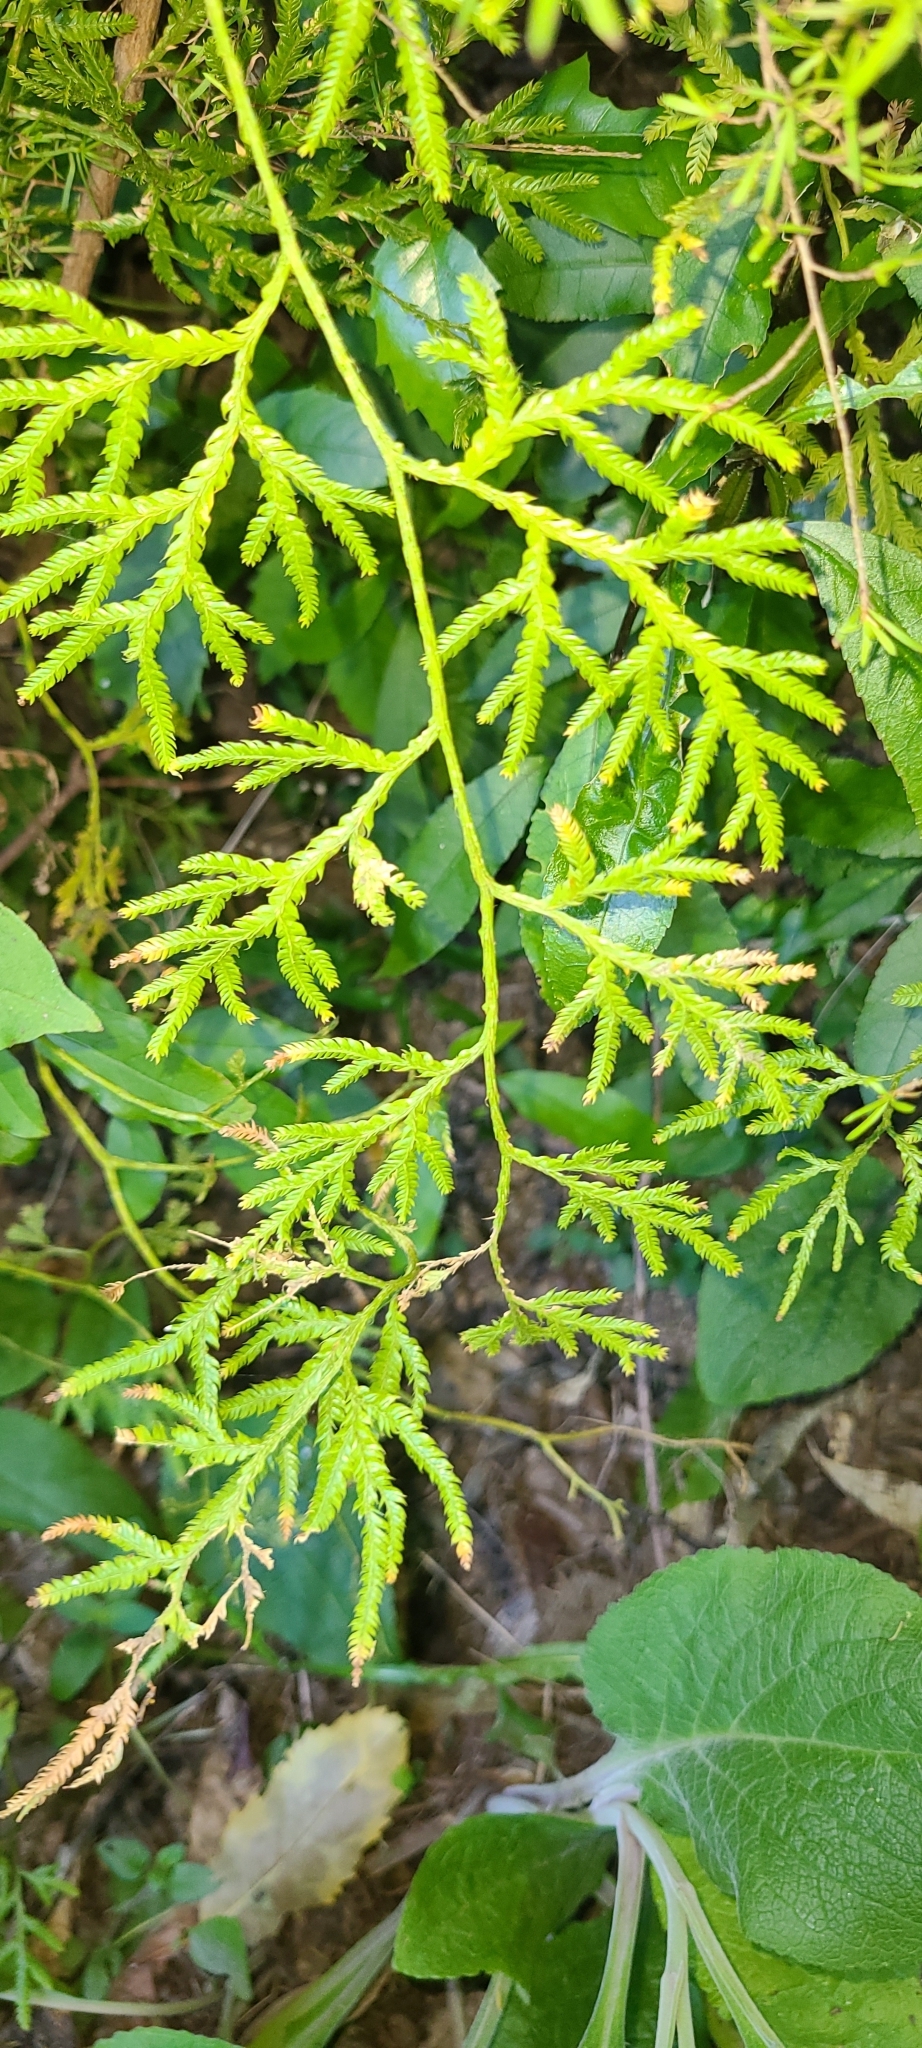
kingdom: Plantae
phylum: Tracheophyta
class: Lycopodiopsida
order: Lycopodiales
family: Lycopodiaceae
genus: Lycopodium
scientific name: Lycopodium volubile
